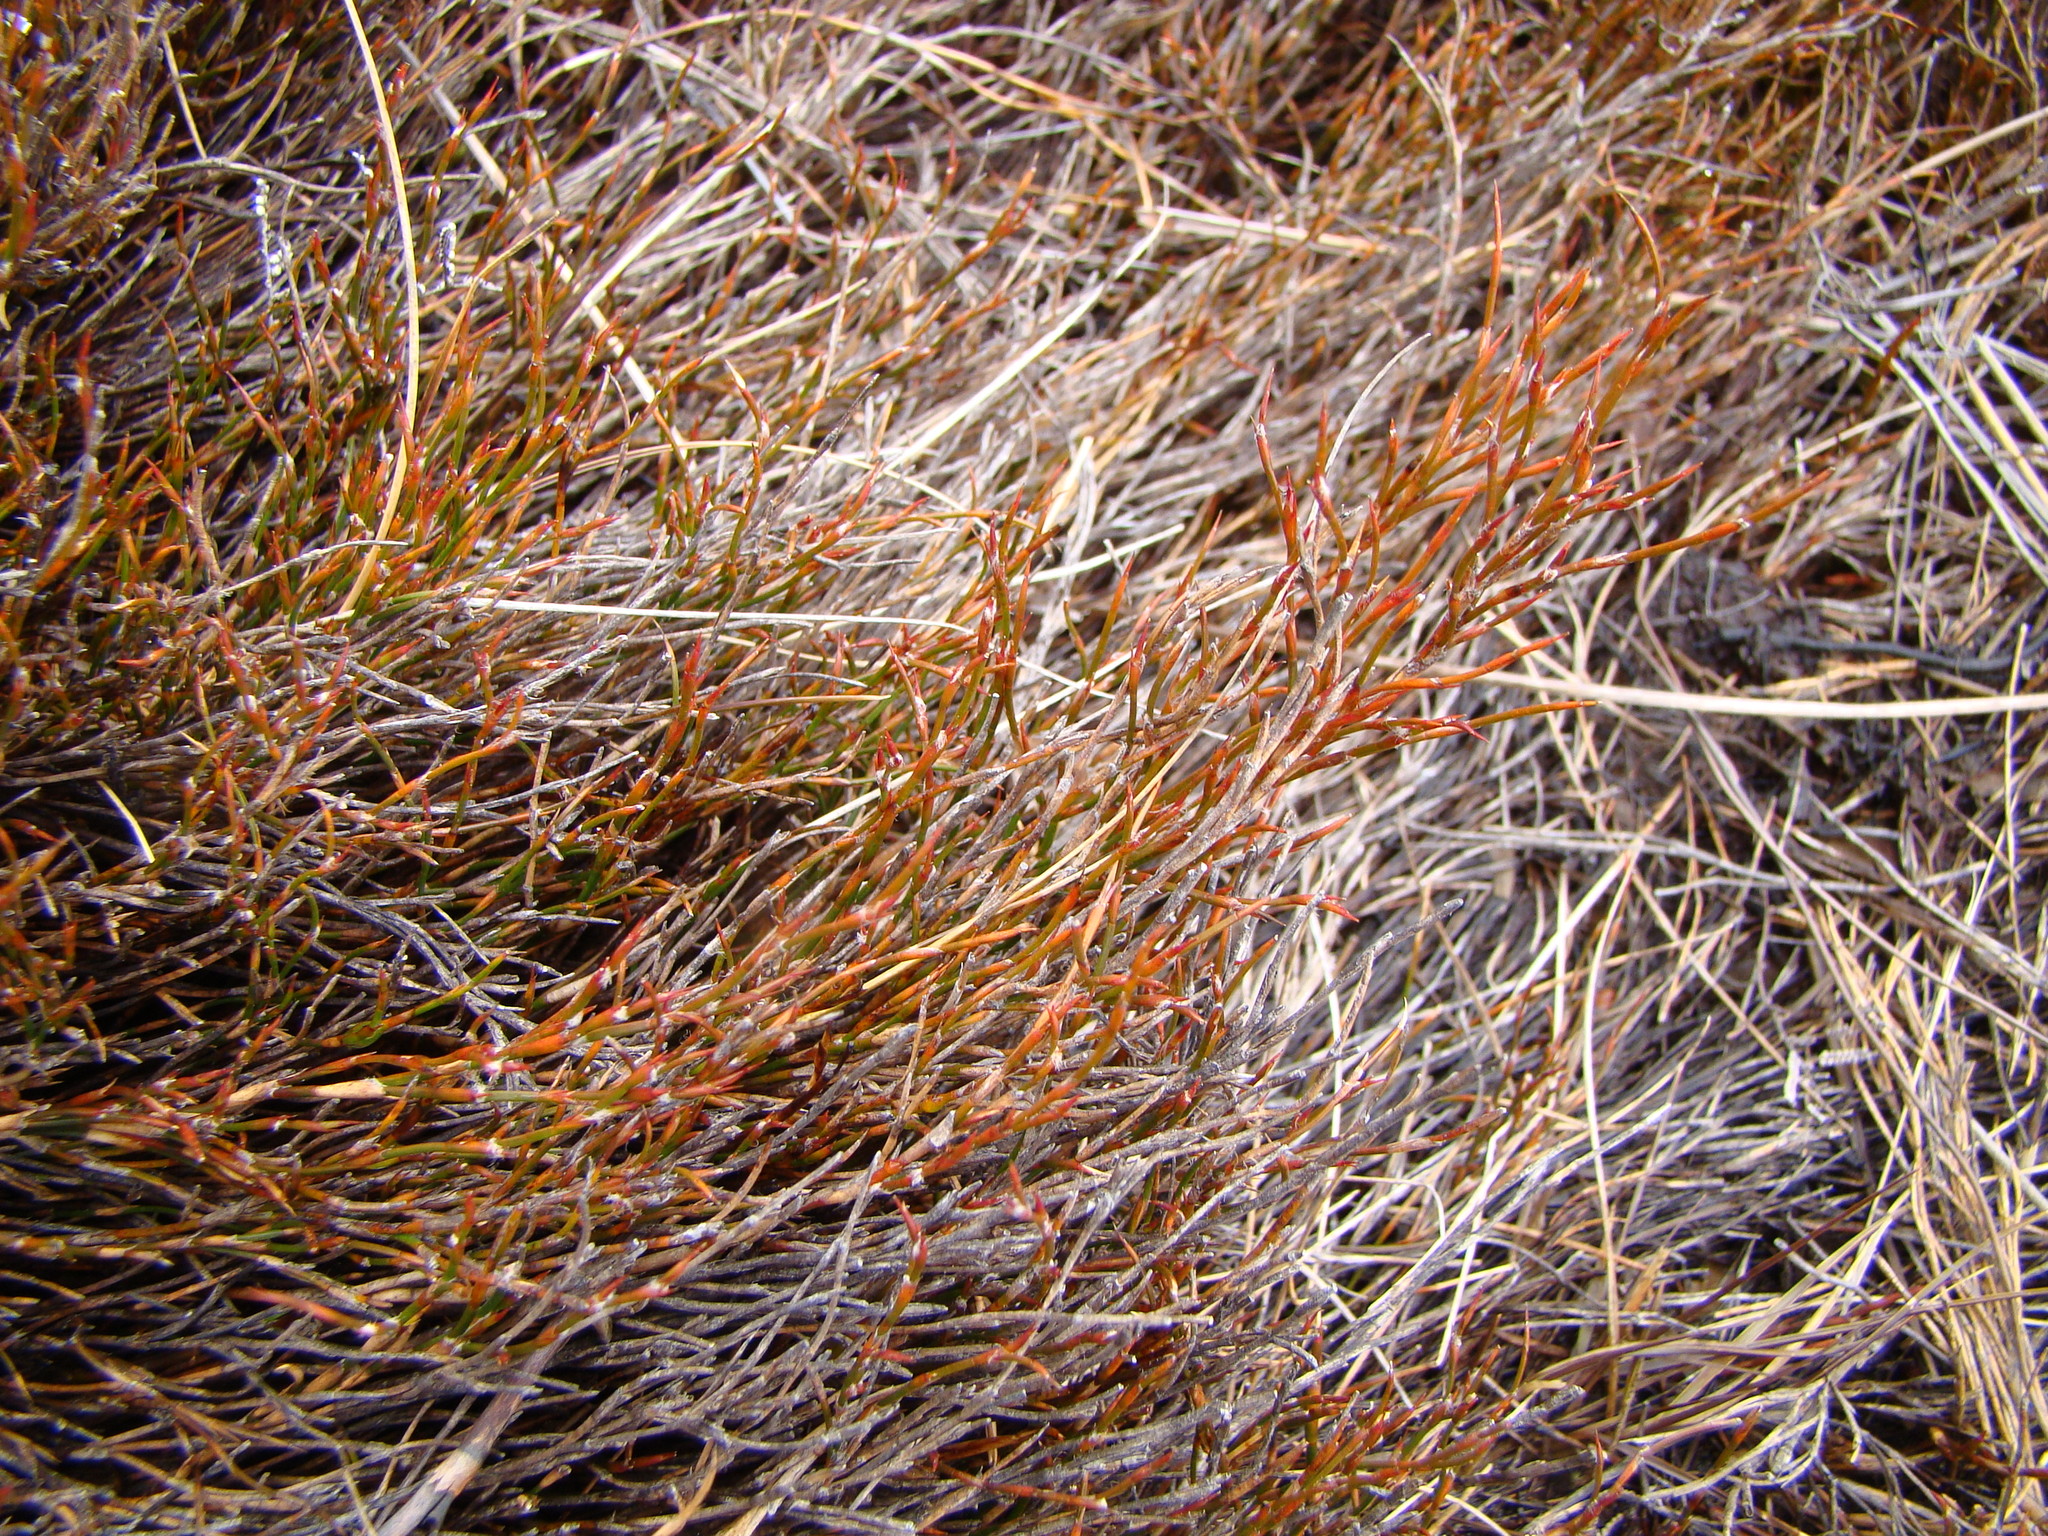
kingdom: Plantae
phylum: Tracheophyta
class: Liliopsida
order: Poales
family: Restionaceae
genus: Empodisma
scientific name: Empodisma minus
